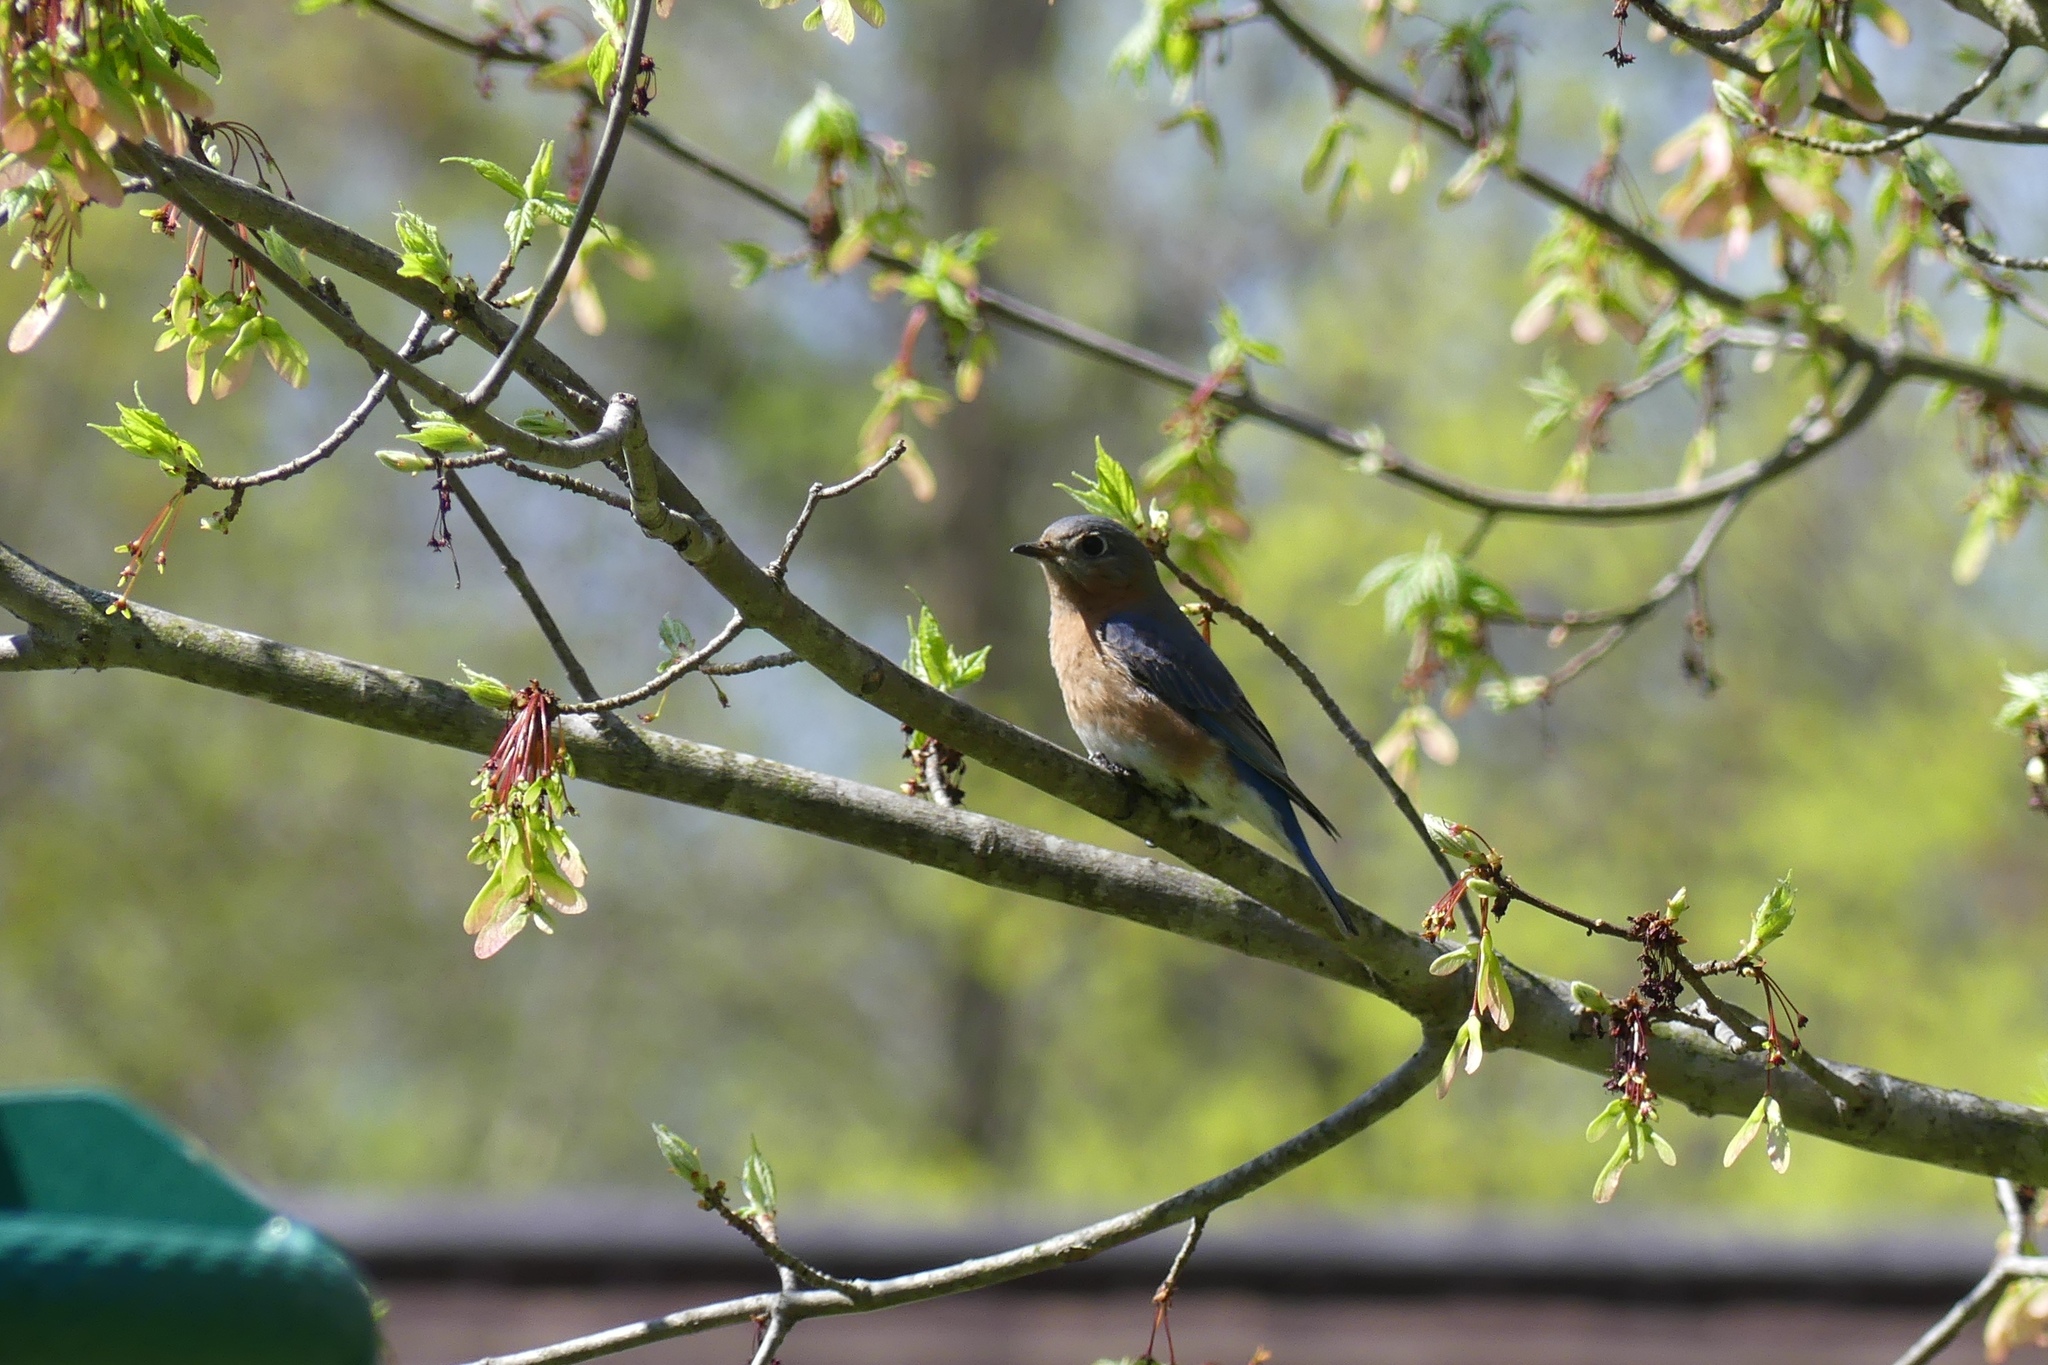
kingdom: Animalia
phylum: Chordata
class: Aves
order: Passeriformes
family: Turdidae
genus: Sialia
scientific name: Sialia sialis
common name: Eastern bluebird
